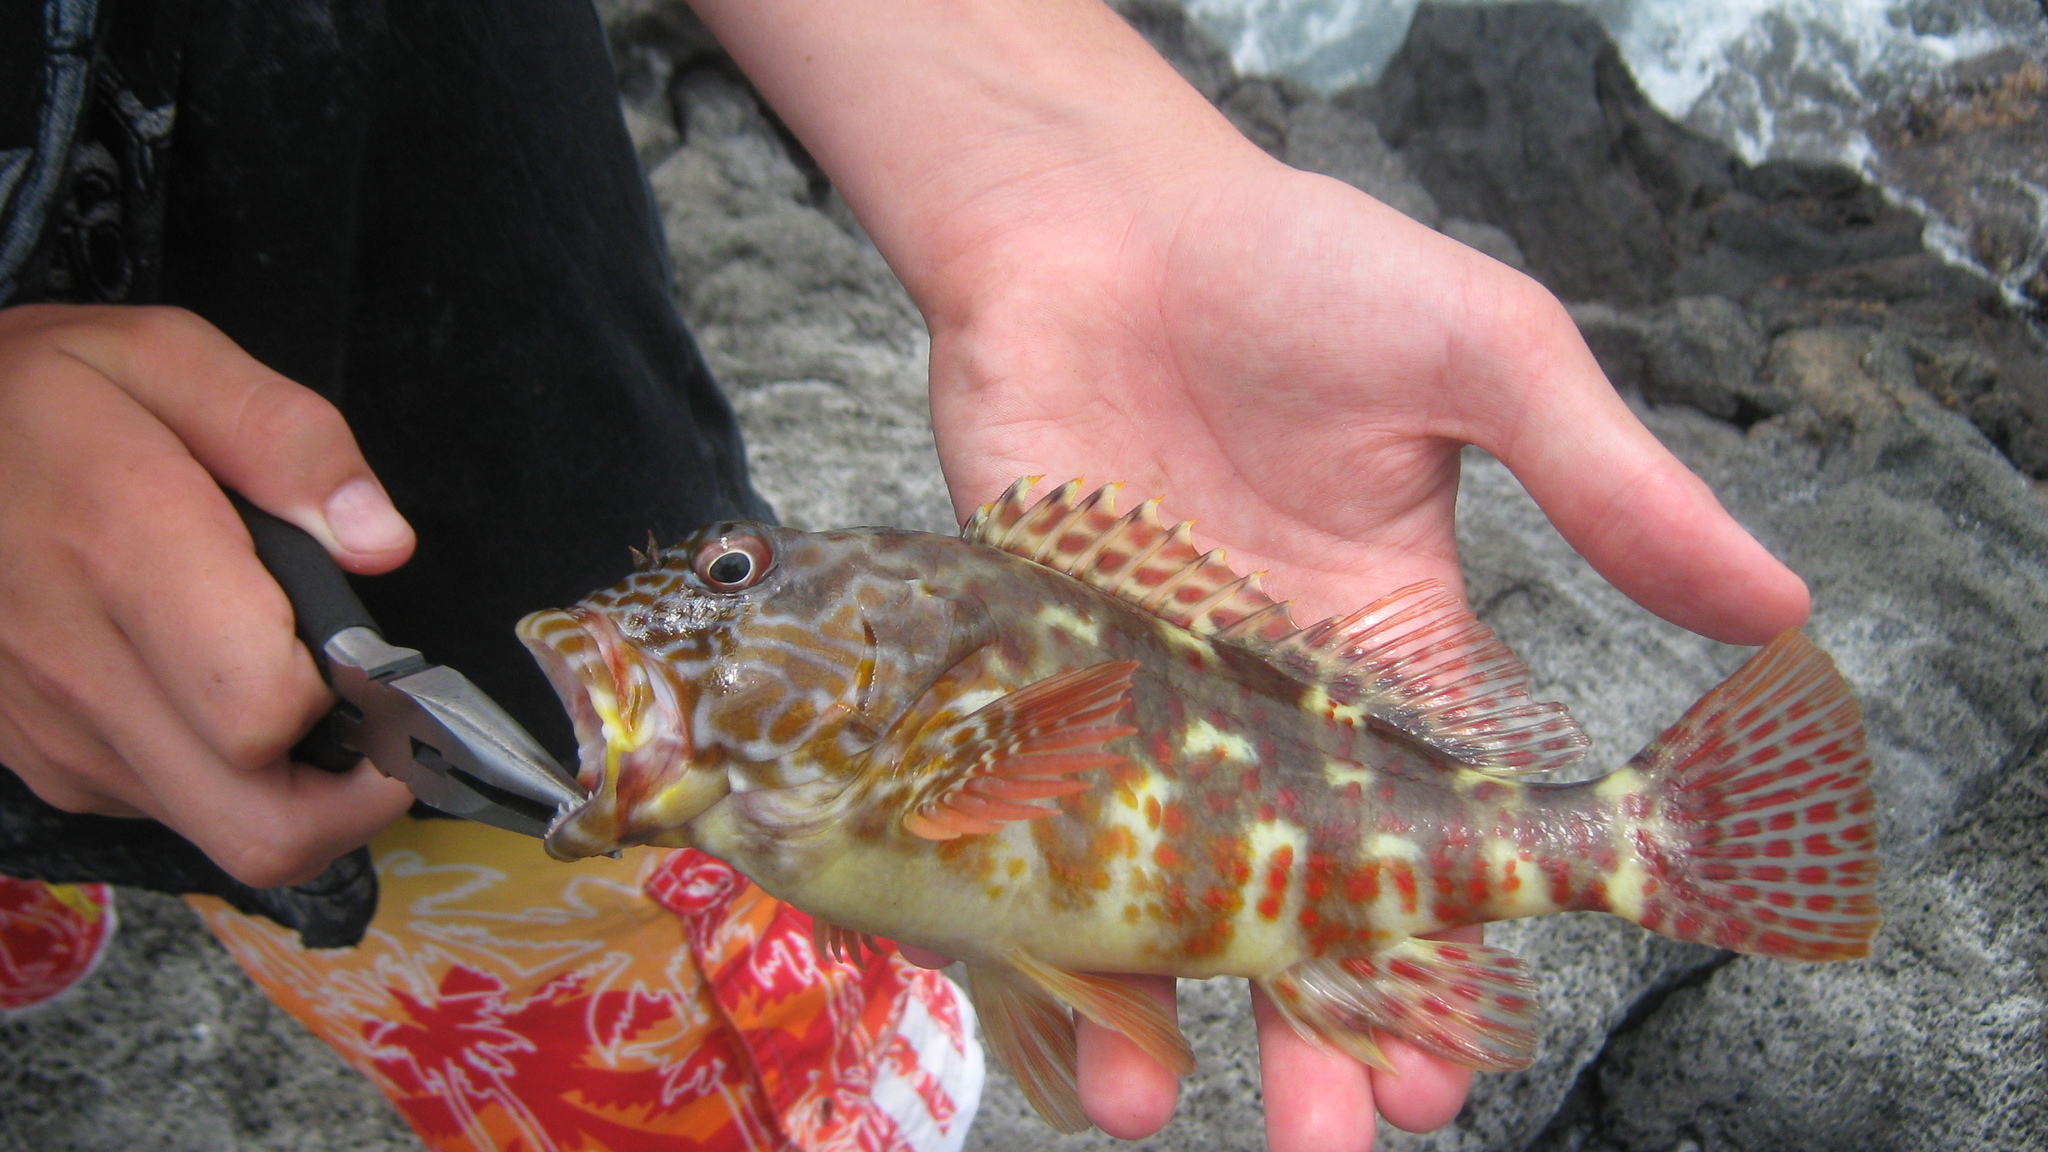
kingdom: Animalia
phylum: Chordata
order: Perciformes
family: Cirrhitidae
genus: Cirrhitus
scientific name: Cirrhitus pinnulatus
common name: Stocky hawkfish
